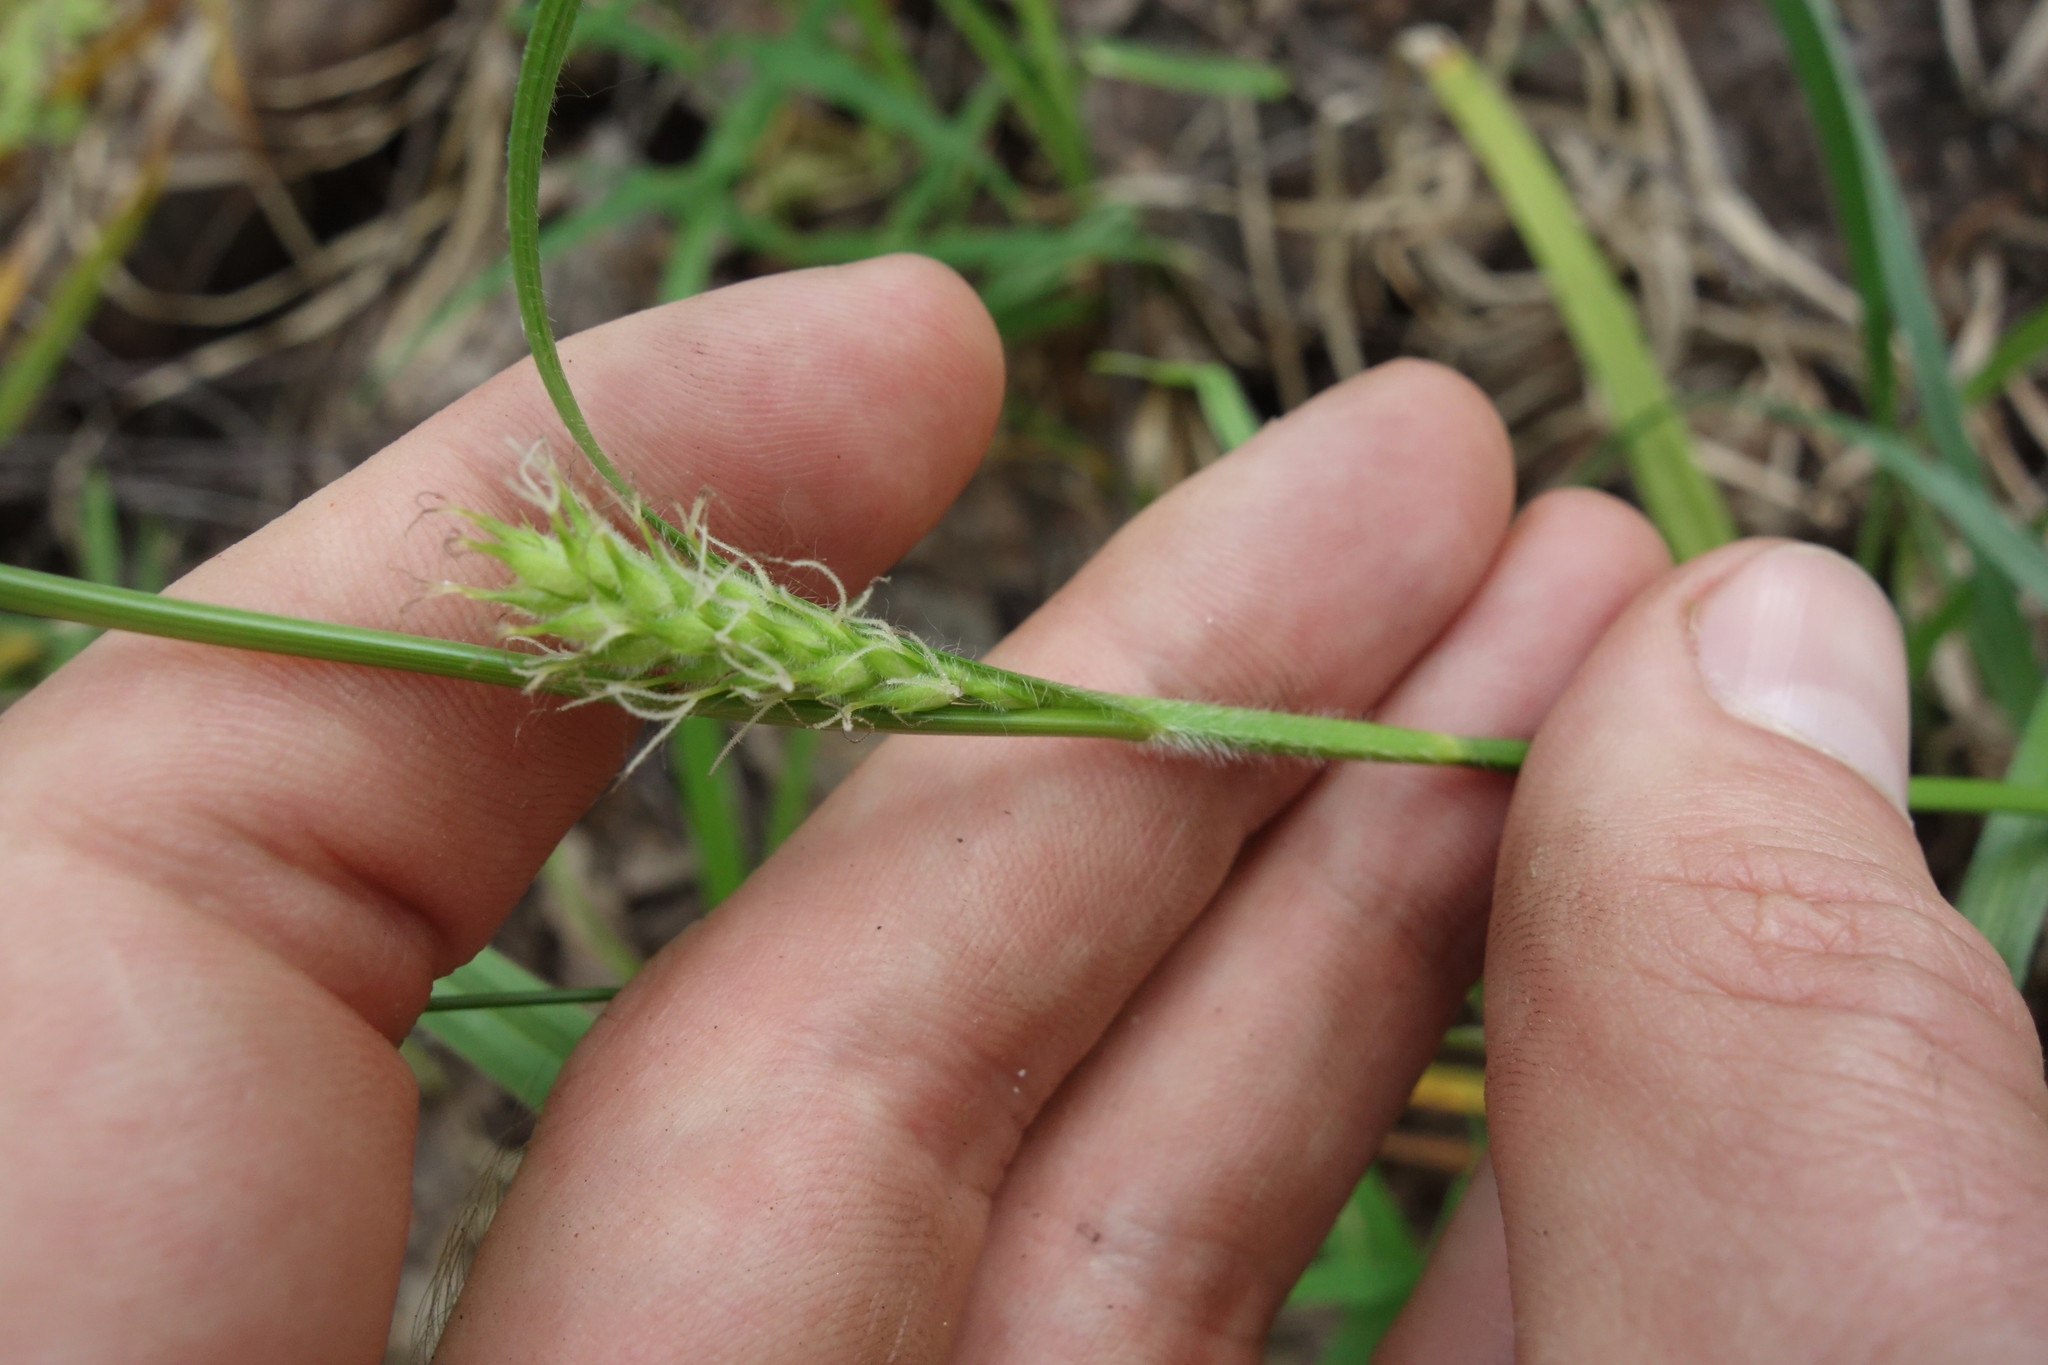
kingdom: Plantae
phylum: Tracheophyta
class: Liliopsida
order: Poales
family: Cyperaceae
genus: Carex
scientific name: Carex hirta
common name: Hairy sedge
